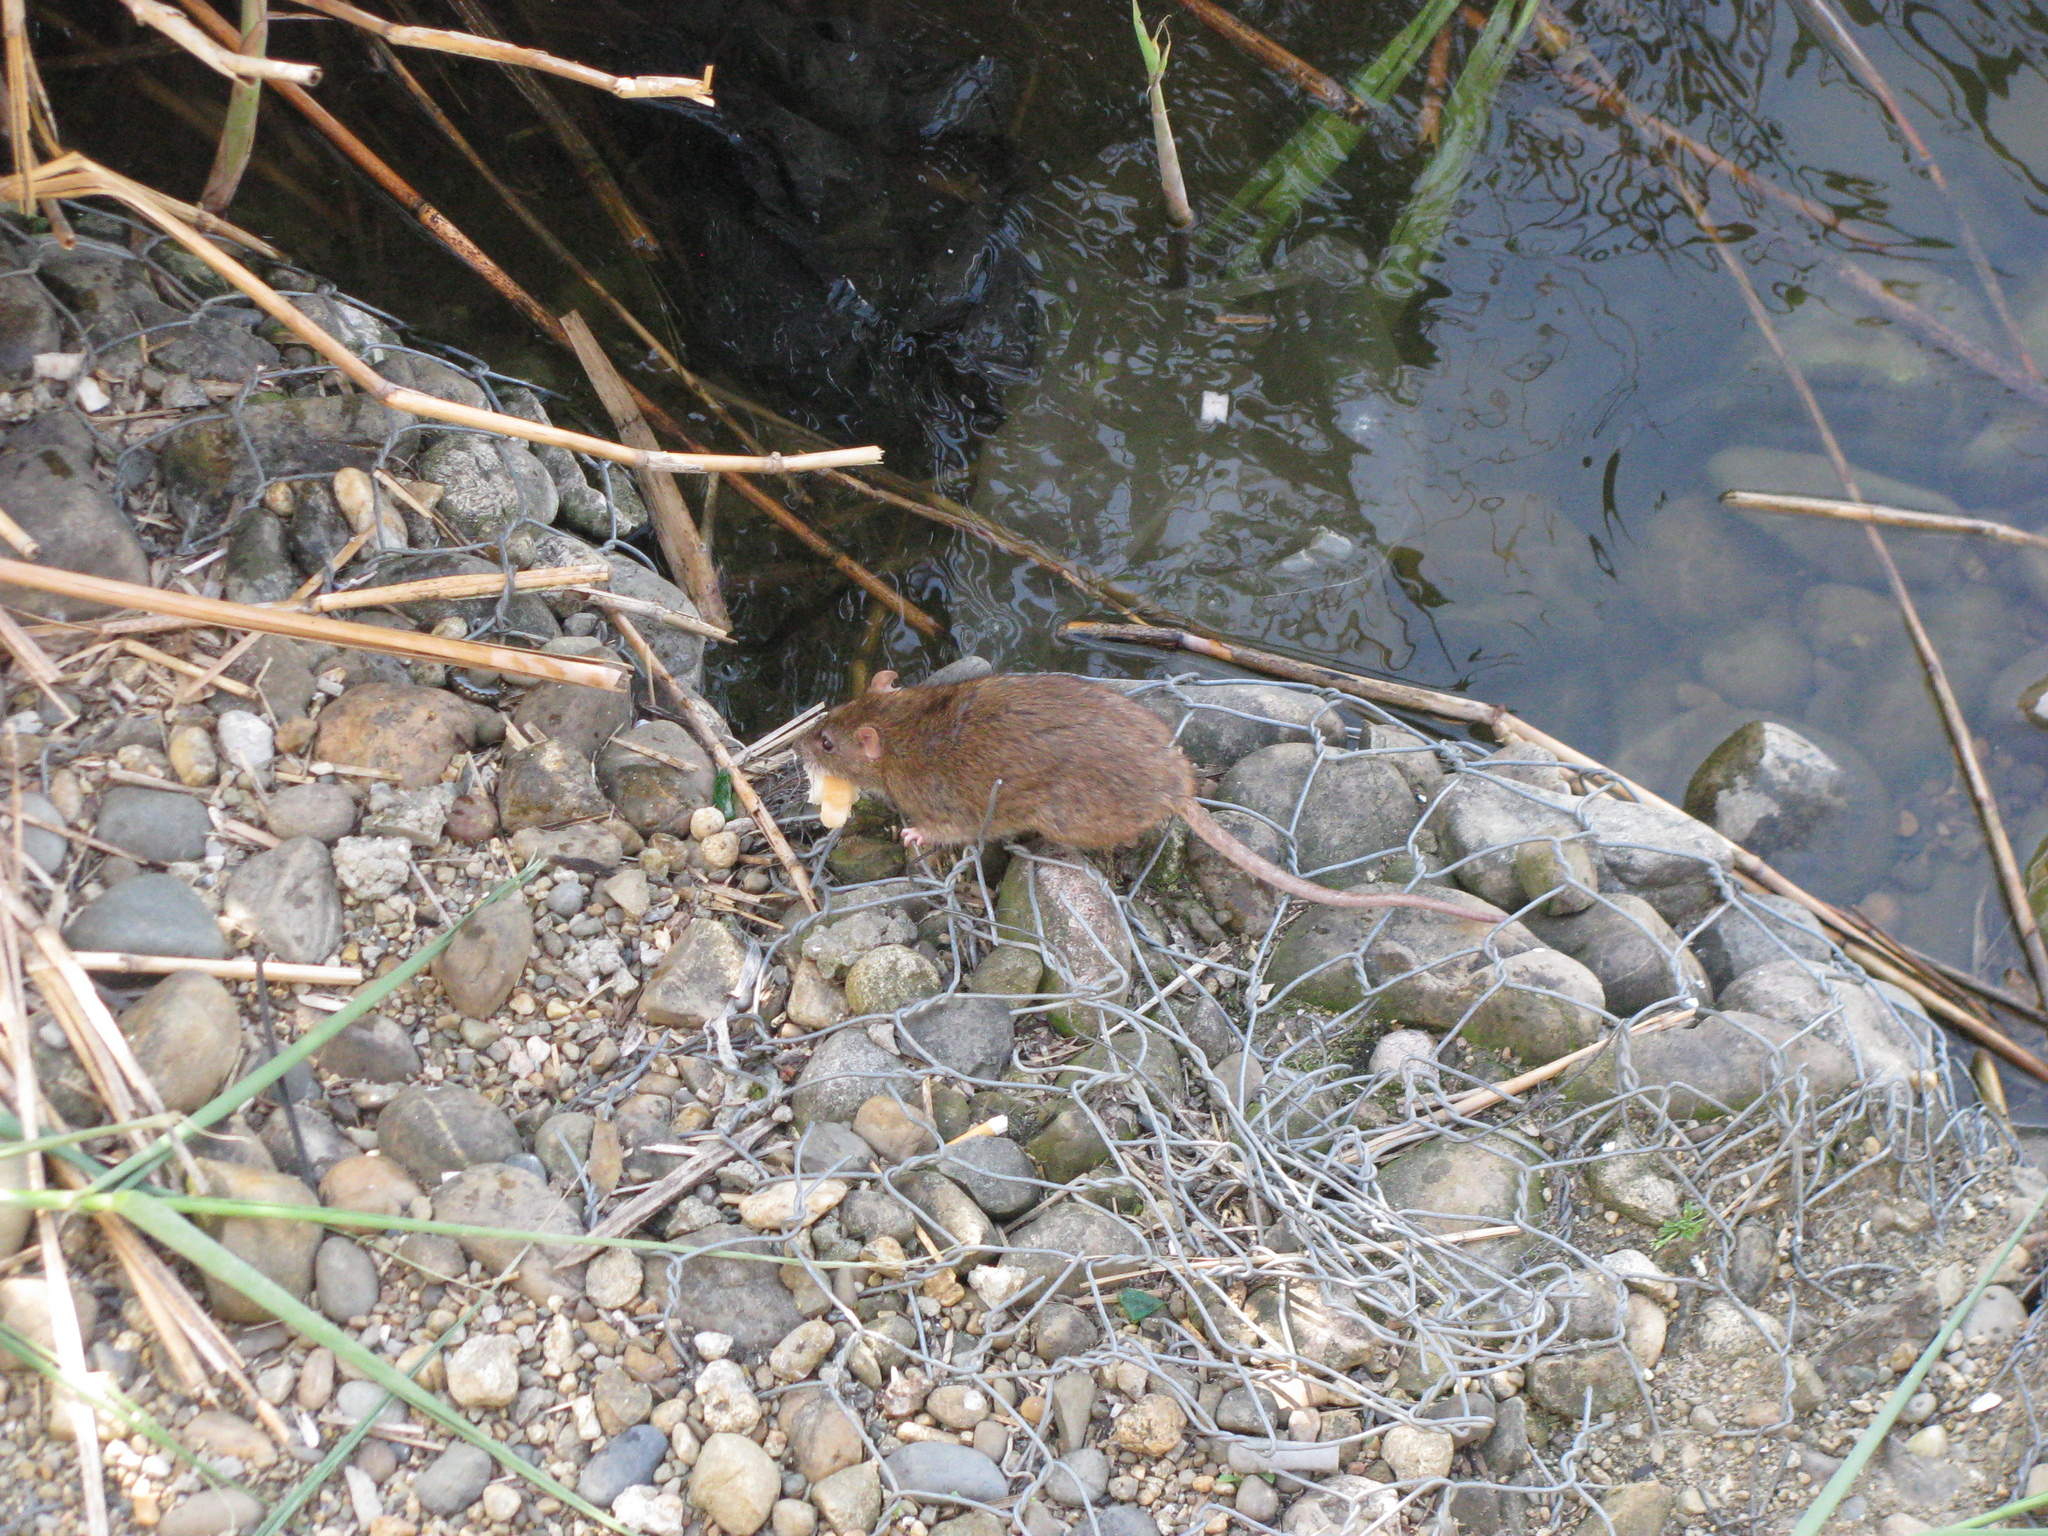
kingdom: Animalia
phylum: Chordata
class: Mammalia
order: Rodentia
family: Muridae
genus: Rattus
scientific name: Rattus norvegicus
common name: Brown rat
